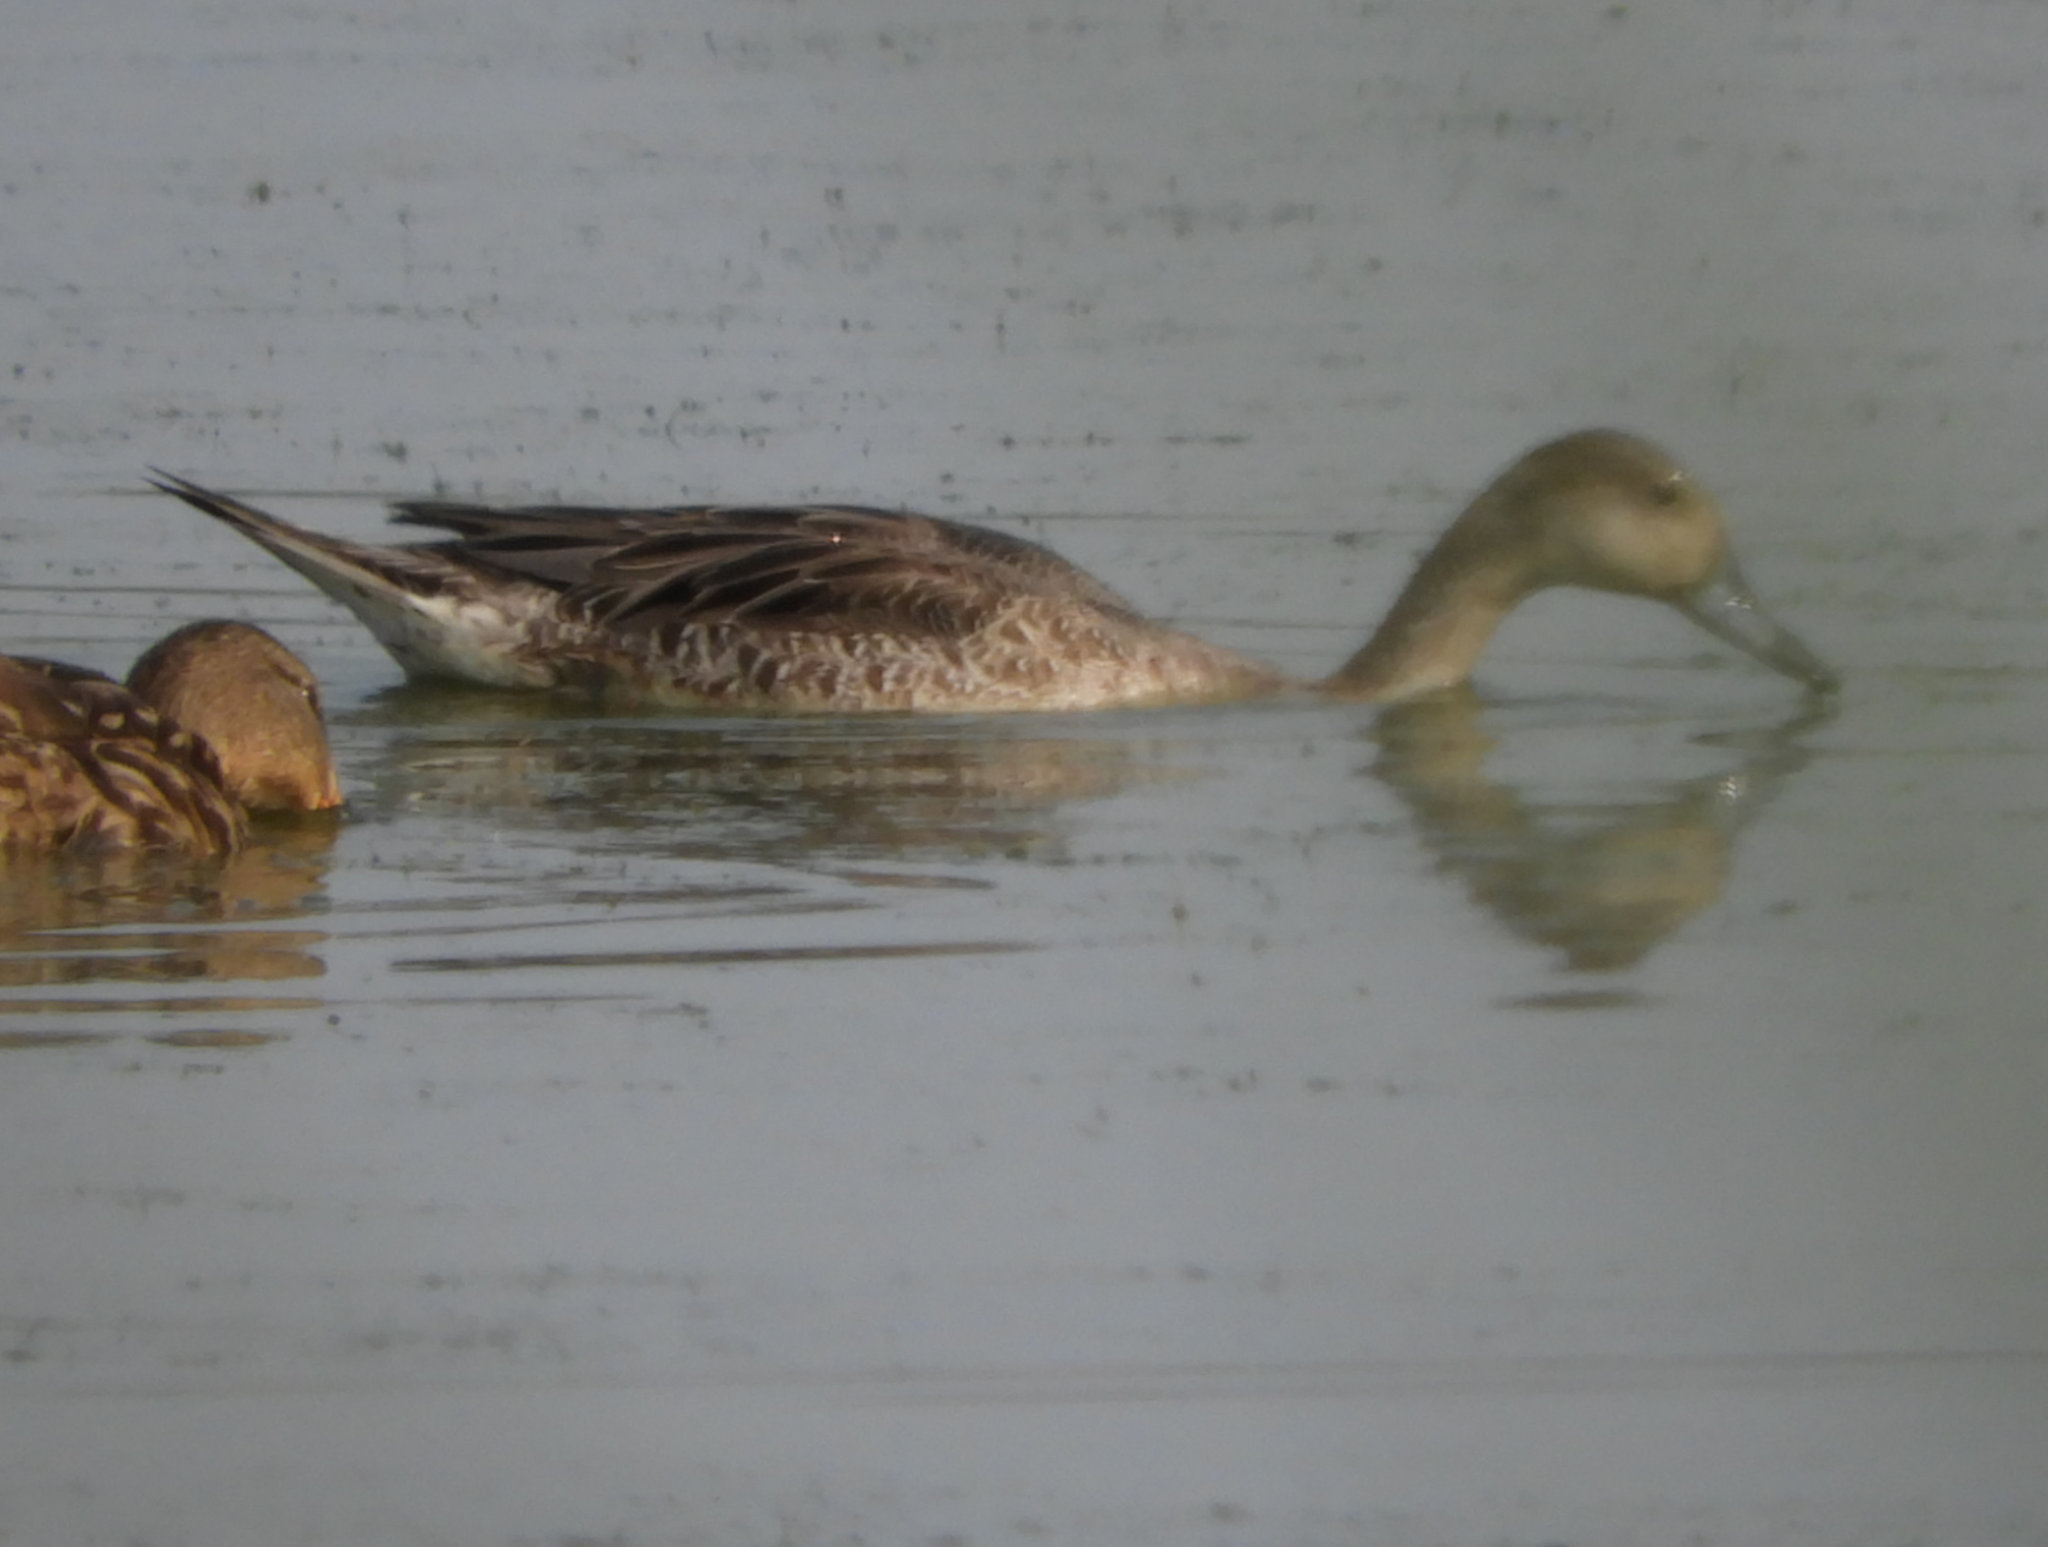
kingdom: Animalia
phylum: Chordata
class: Aves
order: Anseriformes
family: Anatidae
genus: Anas
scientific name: Anas acuta
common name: Northern pintail
